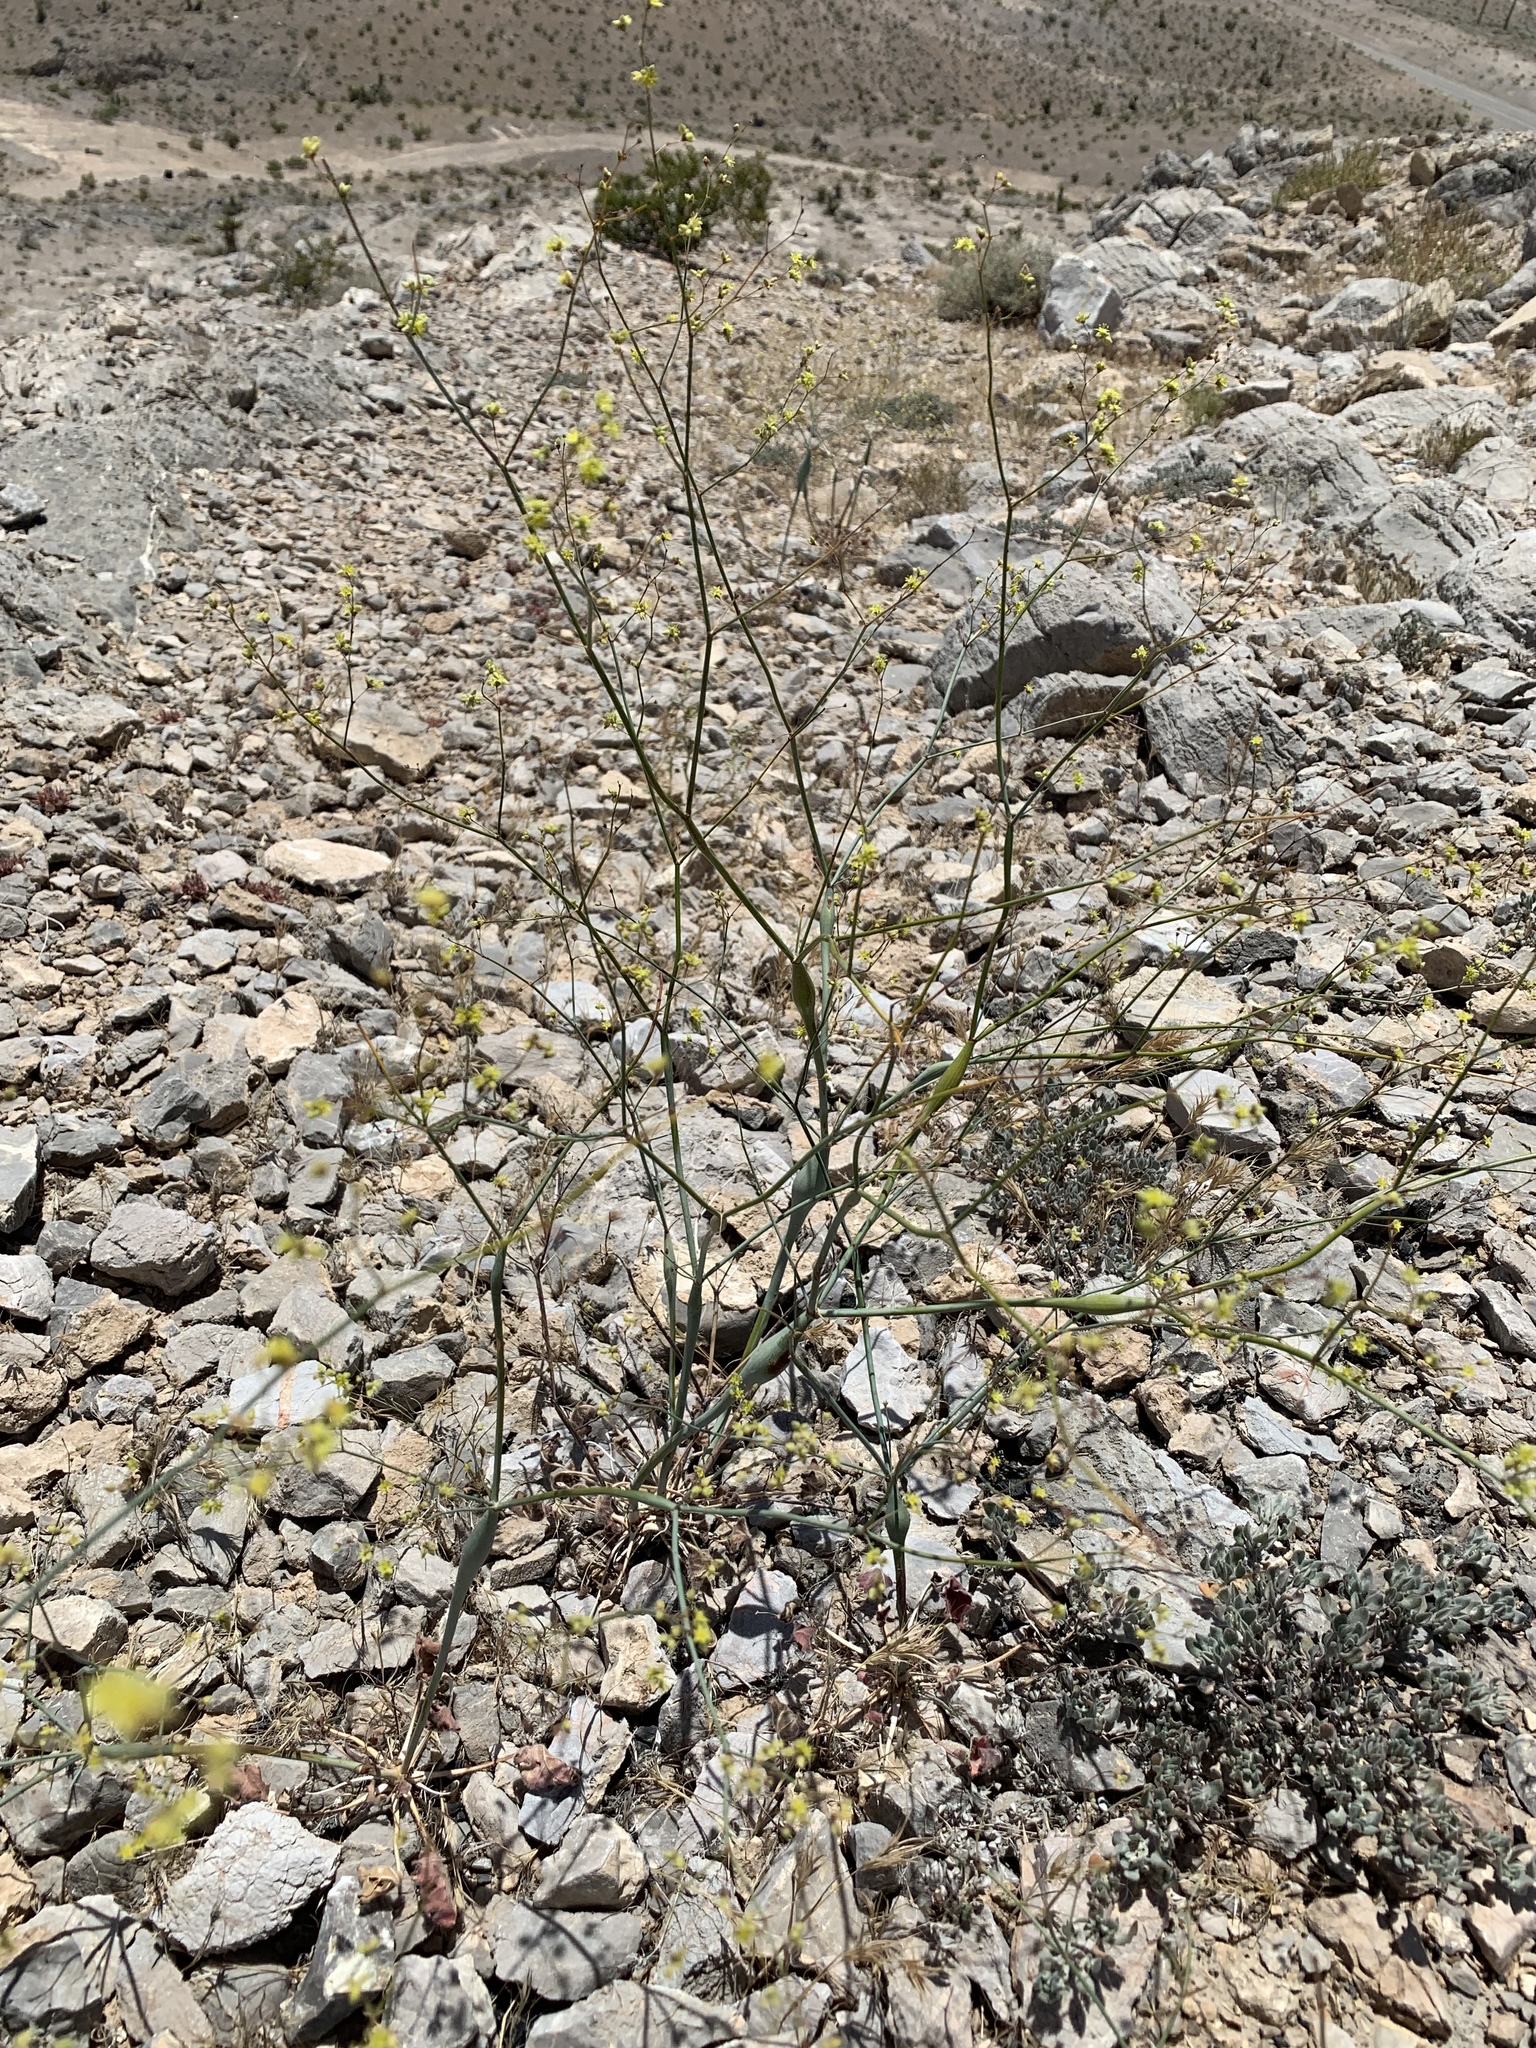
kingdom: Plantae
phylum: Tracheophyta
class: Magnoliopsida
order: Caryophyllales
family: Polygonaceae
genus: Eriogonum
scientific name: Eriogonum inflatum
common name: Desert trumpet
